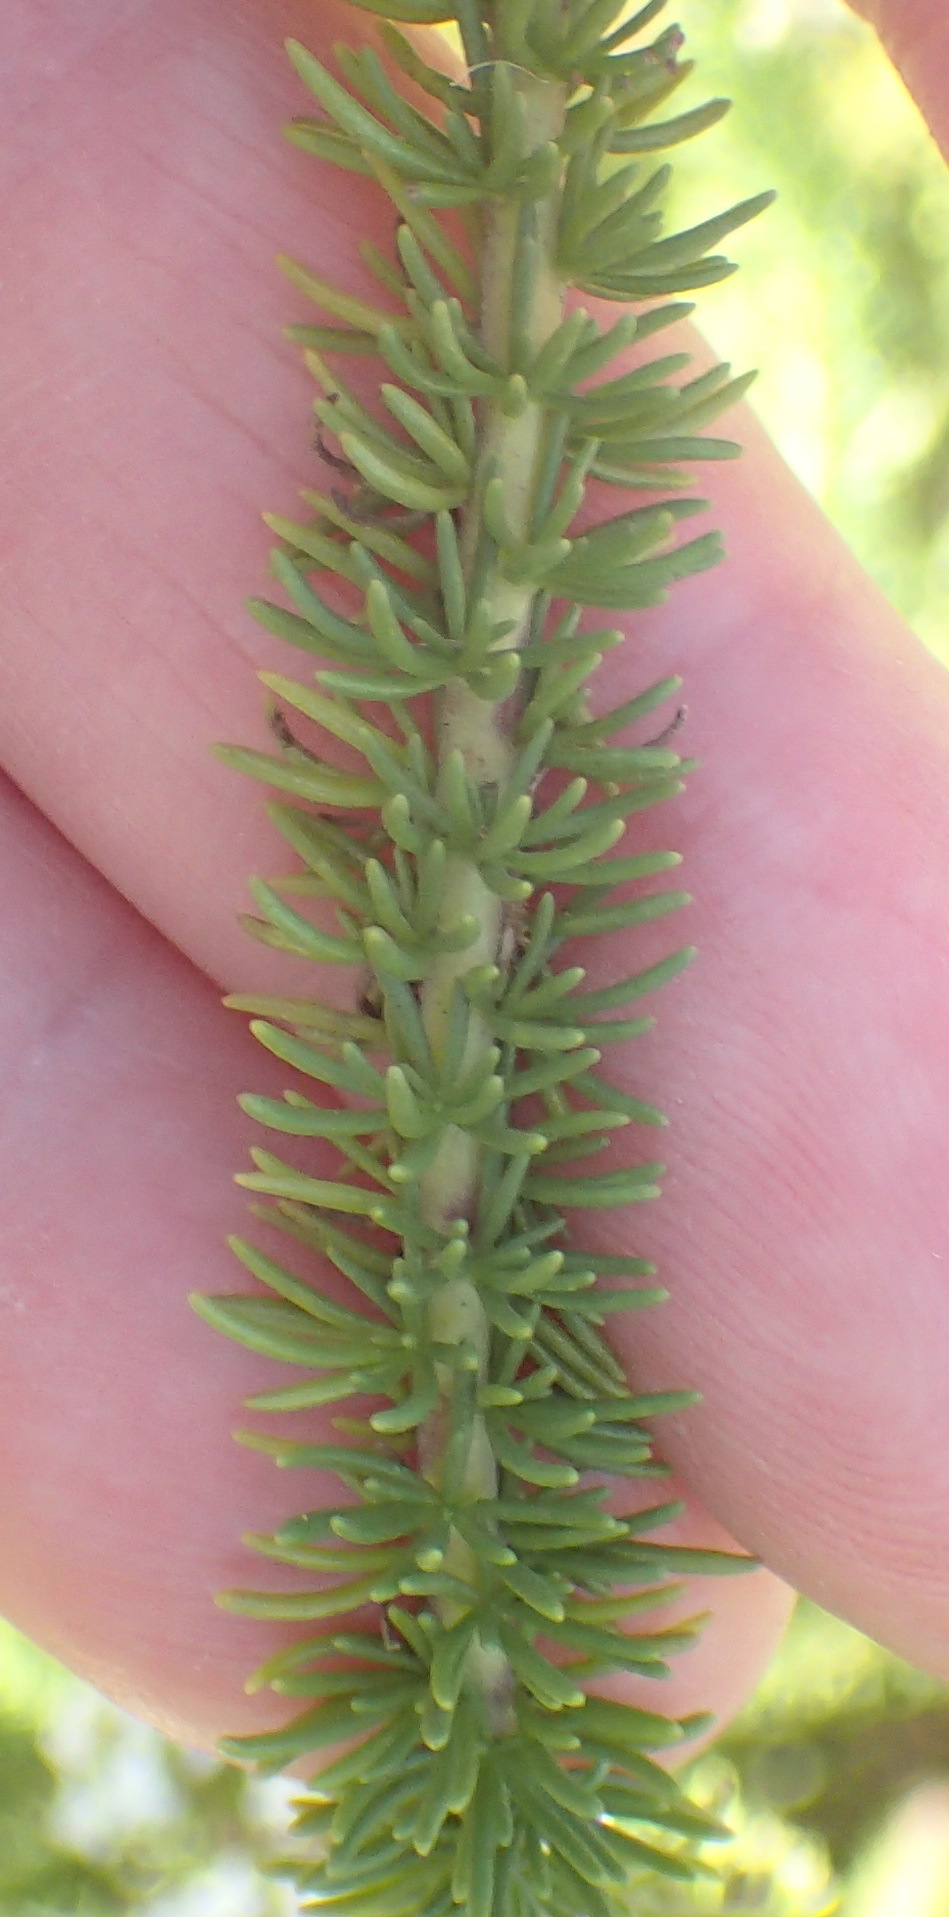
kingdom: Plantae
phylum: Tracheophyta
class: Magnoliopsida
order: Lamiales
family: Scrophulariaceae
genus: Selago
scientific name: Selago corymbosa
